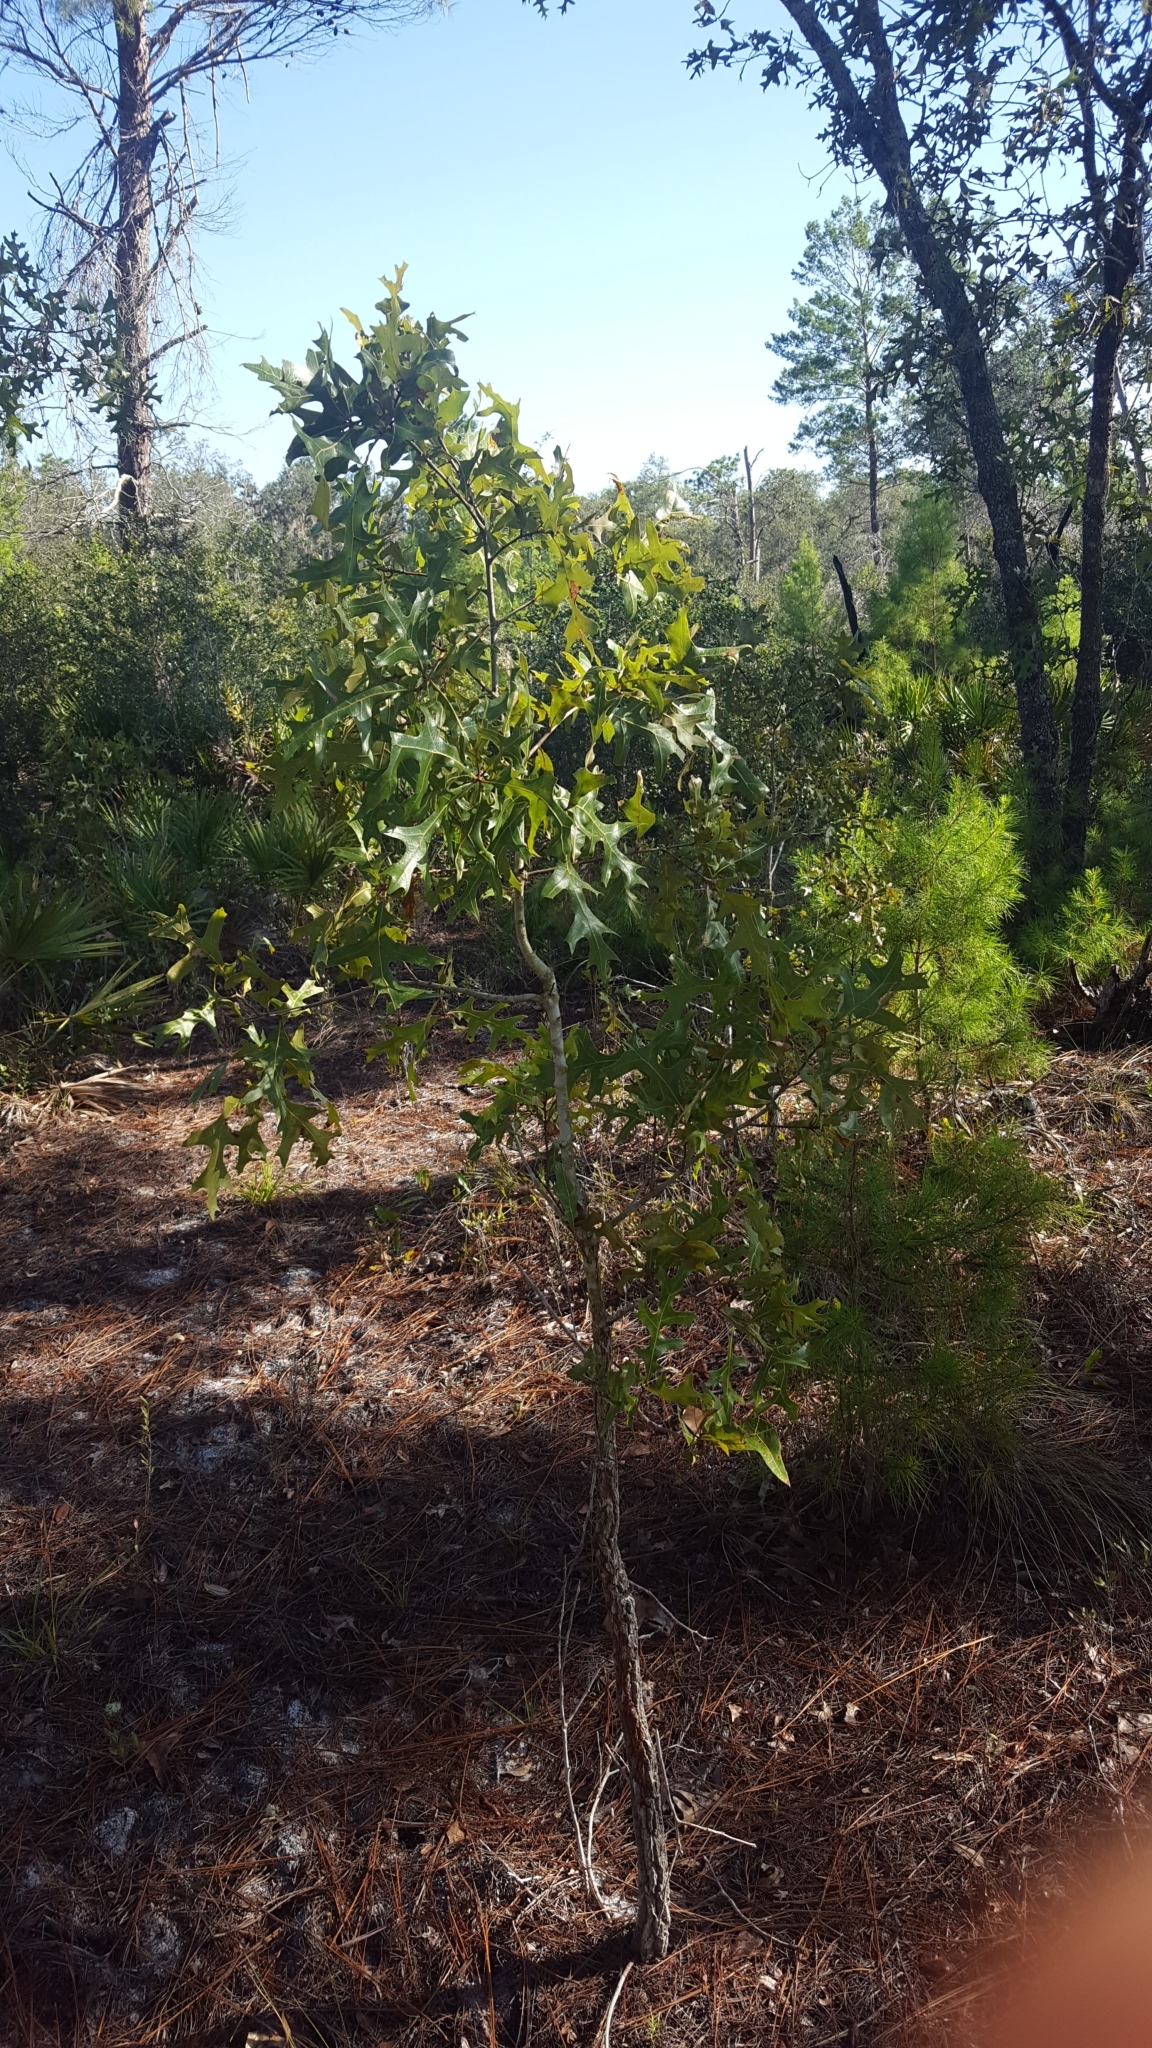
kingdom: Plantae
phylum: Tracheophyta
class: Magnoliopsida
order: Fagales
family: Fagaceae
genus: Quercus
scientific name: Quercus laevis
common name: Turkey oak
